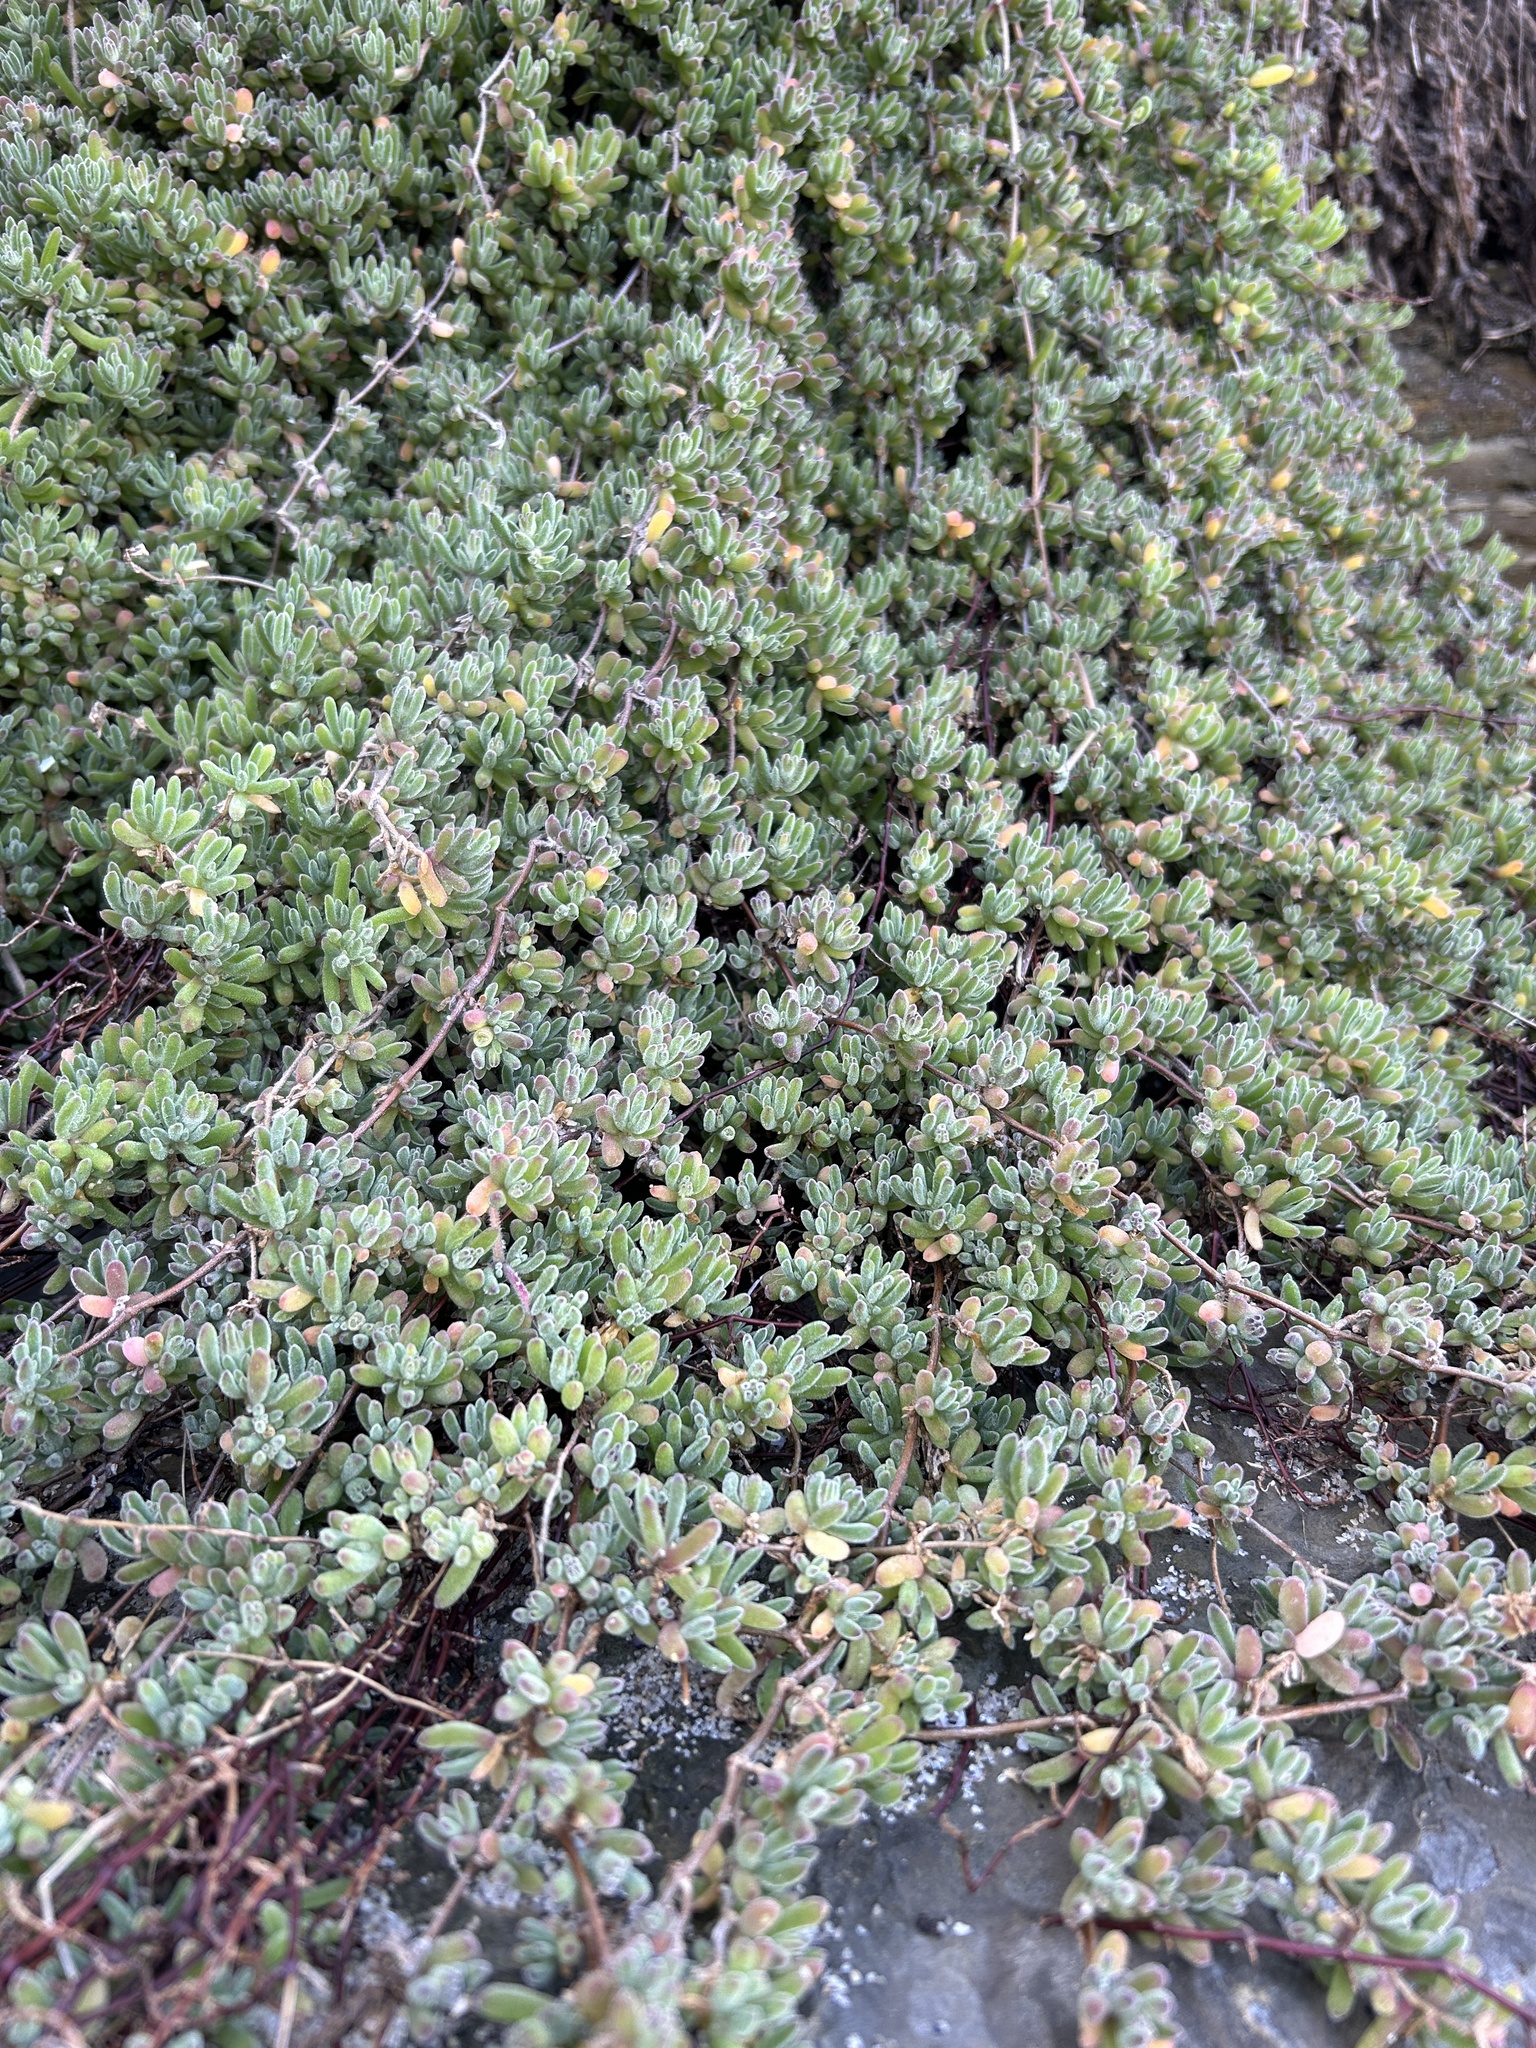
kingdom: Plantae
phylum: Tracheophyta
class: Magnoliopsida
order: Caryophyllales
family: Aizoaceae
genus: Drosanthemum
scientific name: Drosanthemum floribundum
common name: Pale dewplant
